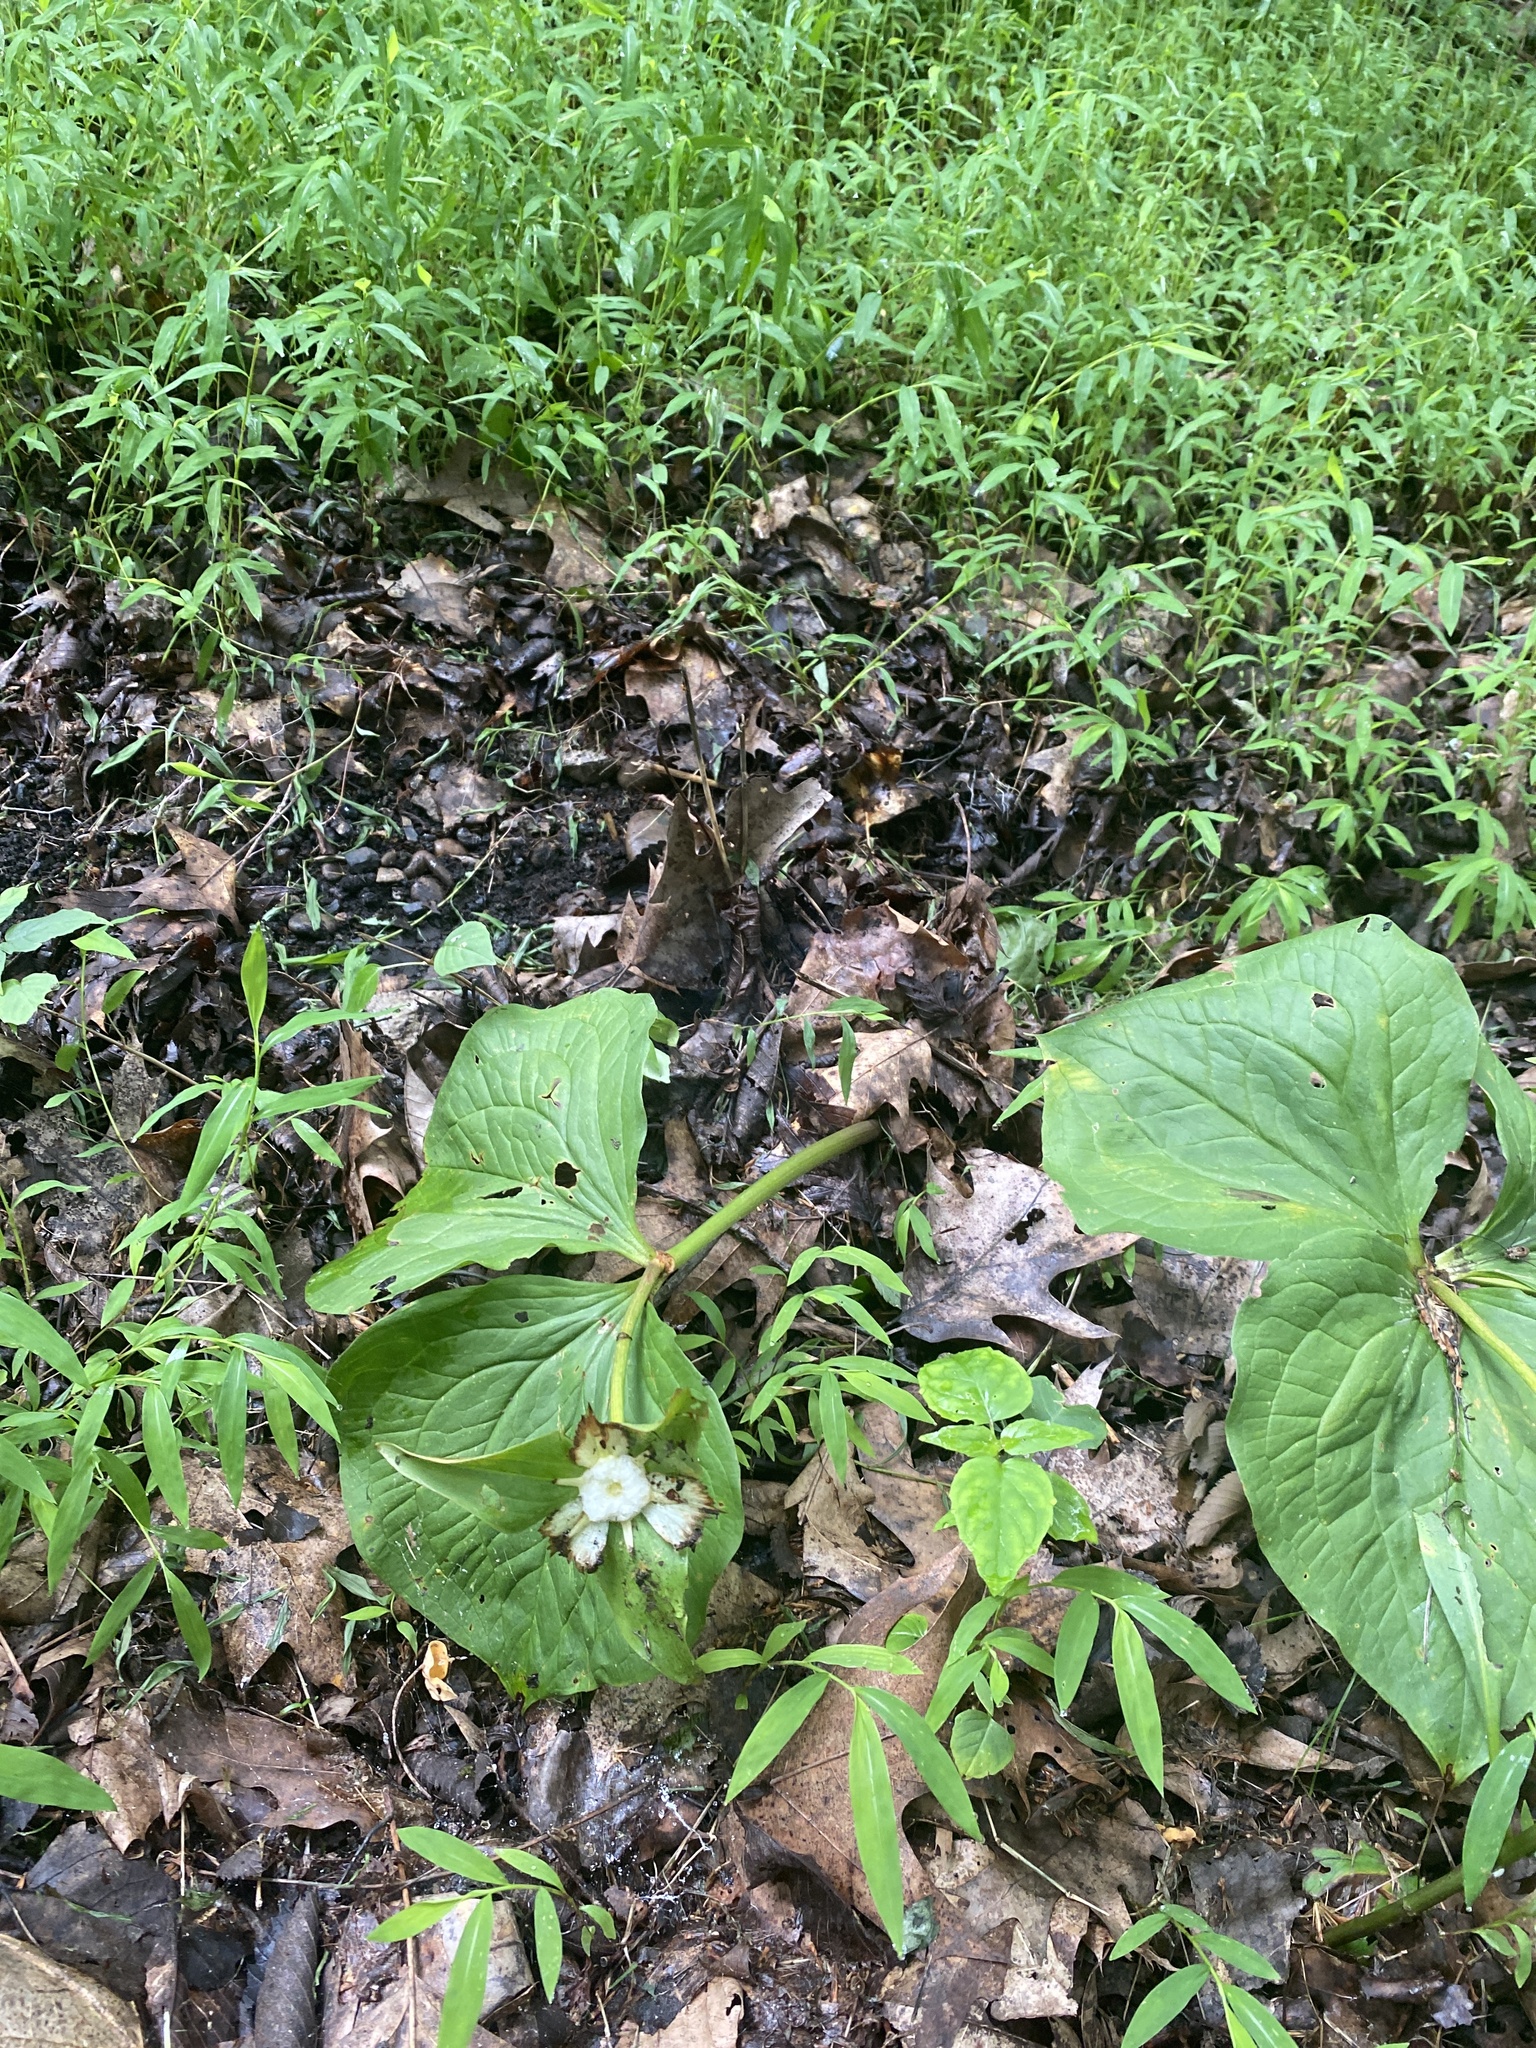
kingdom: Plantae
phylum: Tracheophyta
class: Liliopsida
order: Liliales
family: Melanthiaceae
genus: Trillium
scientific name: Trillium grandiflorum
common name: Great white trillium
